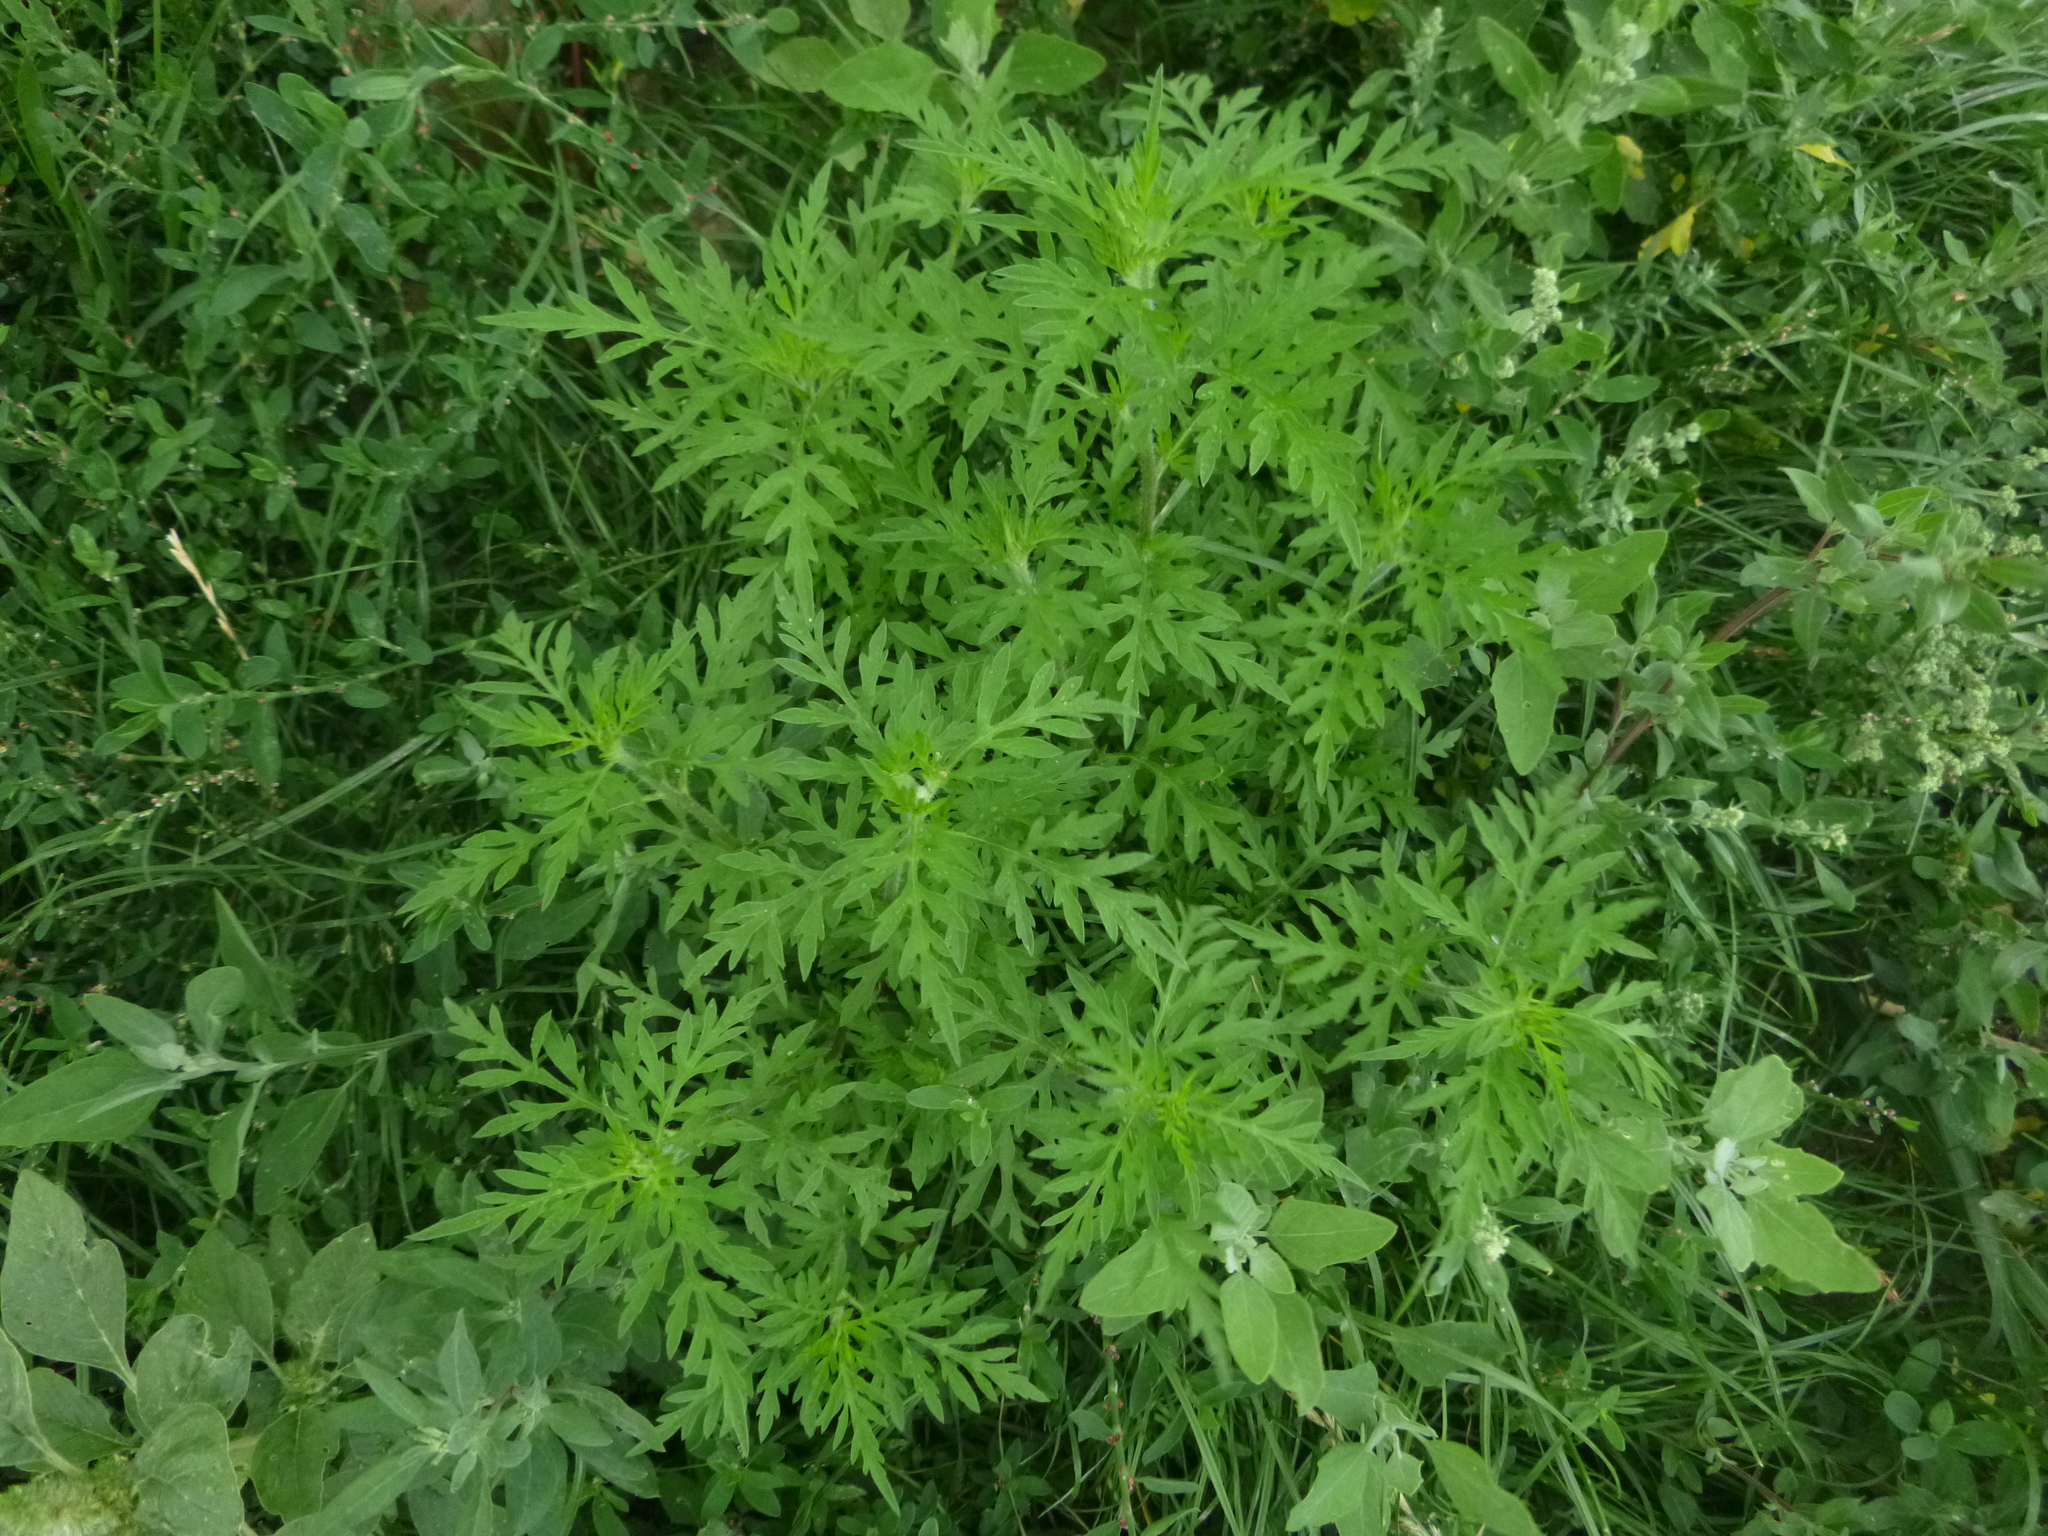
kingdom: Plantae
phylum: Tracheophyta
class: Magnoliopsida
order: Asterales
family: Asteraceae
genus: Ambrosia
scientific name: Ambrosia artemisiifolia
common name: Annual ragweed
